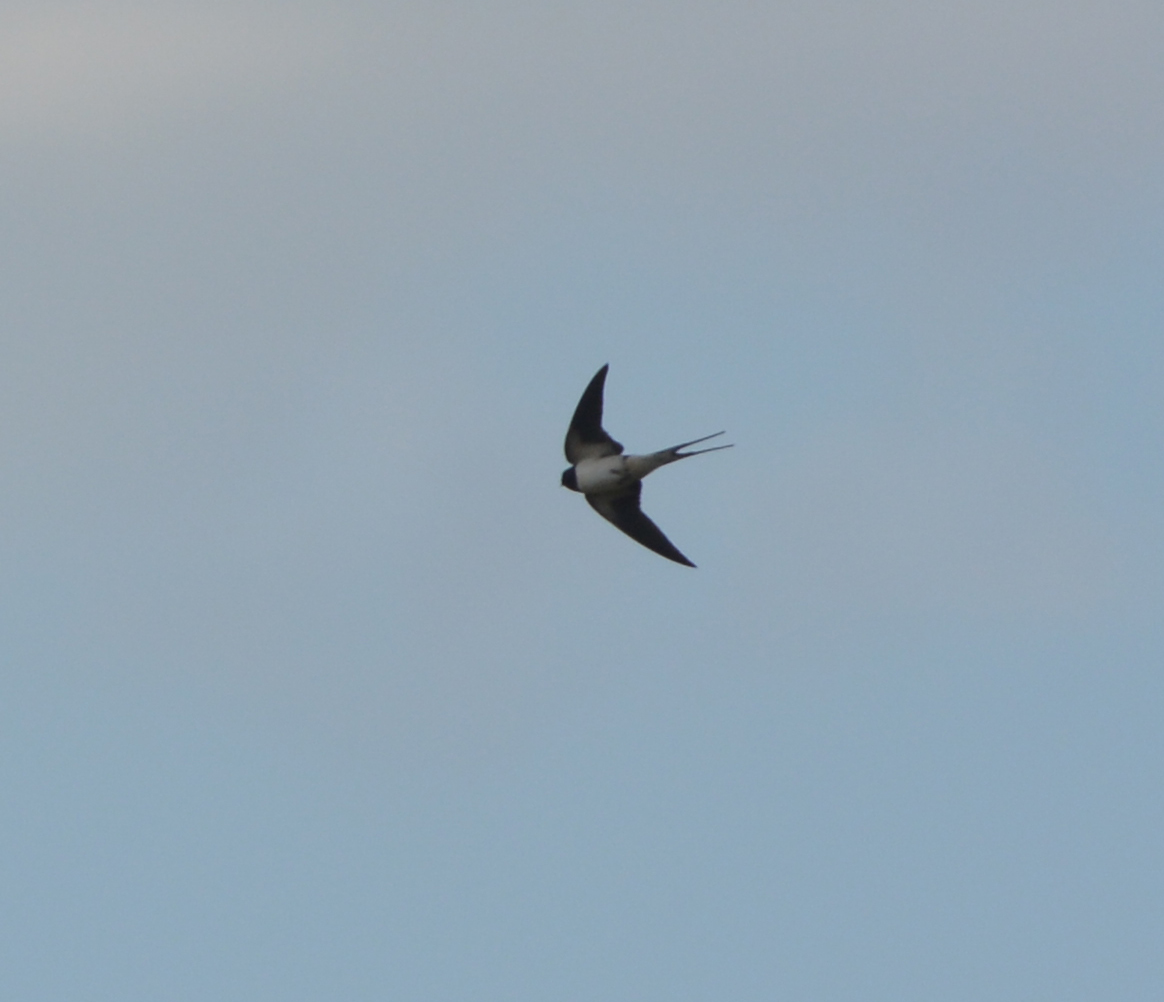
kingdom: Animalia
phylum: Chordata
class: Aves
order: Passeriformes
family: Hirundinidae
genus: Hirundo
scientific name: Hirundo rustica
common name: Barn swallow
